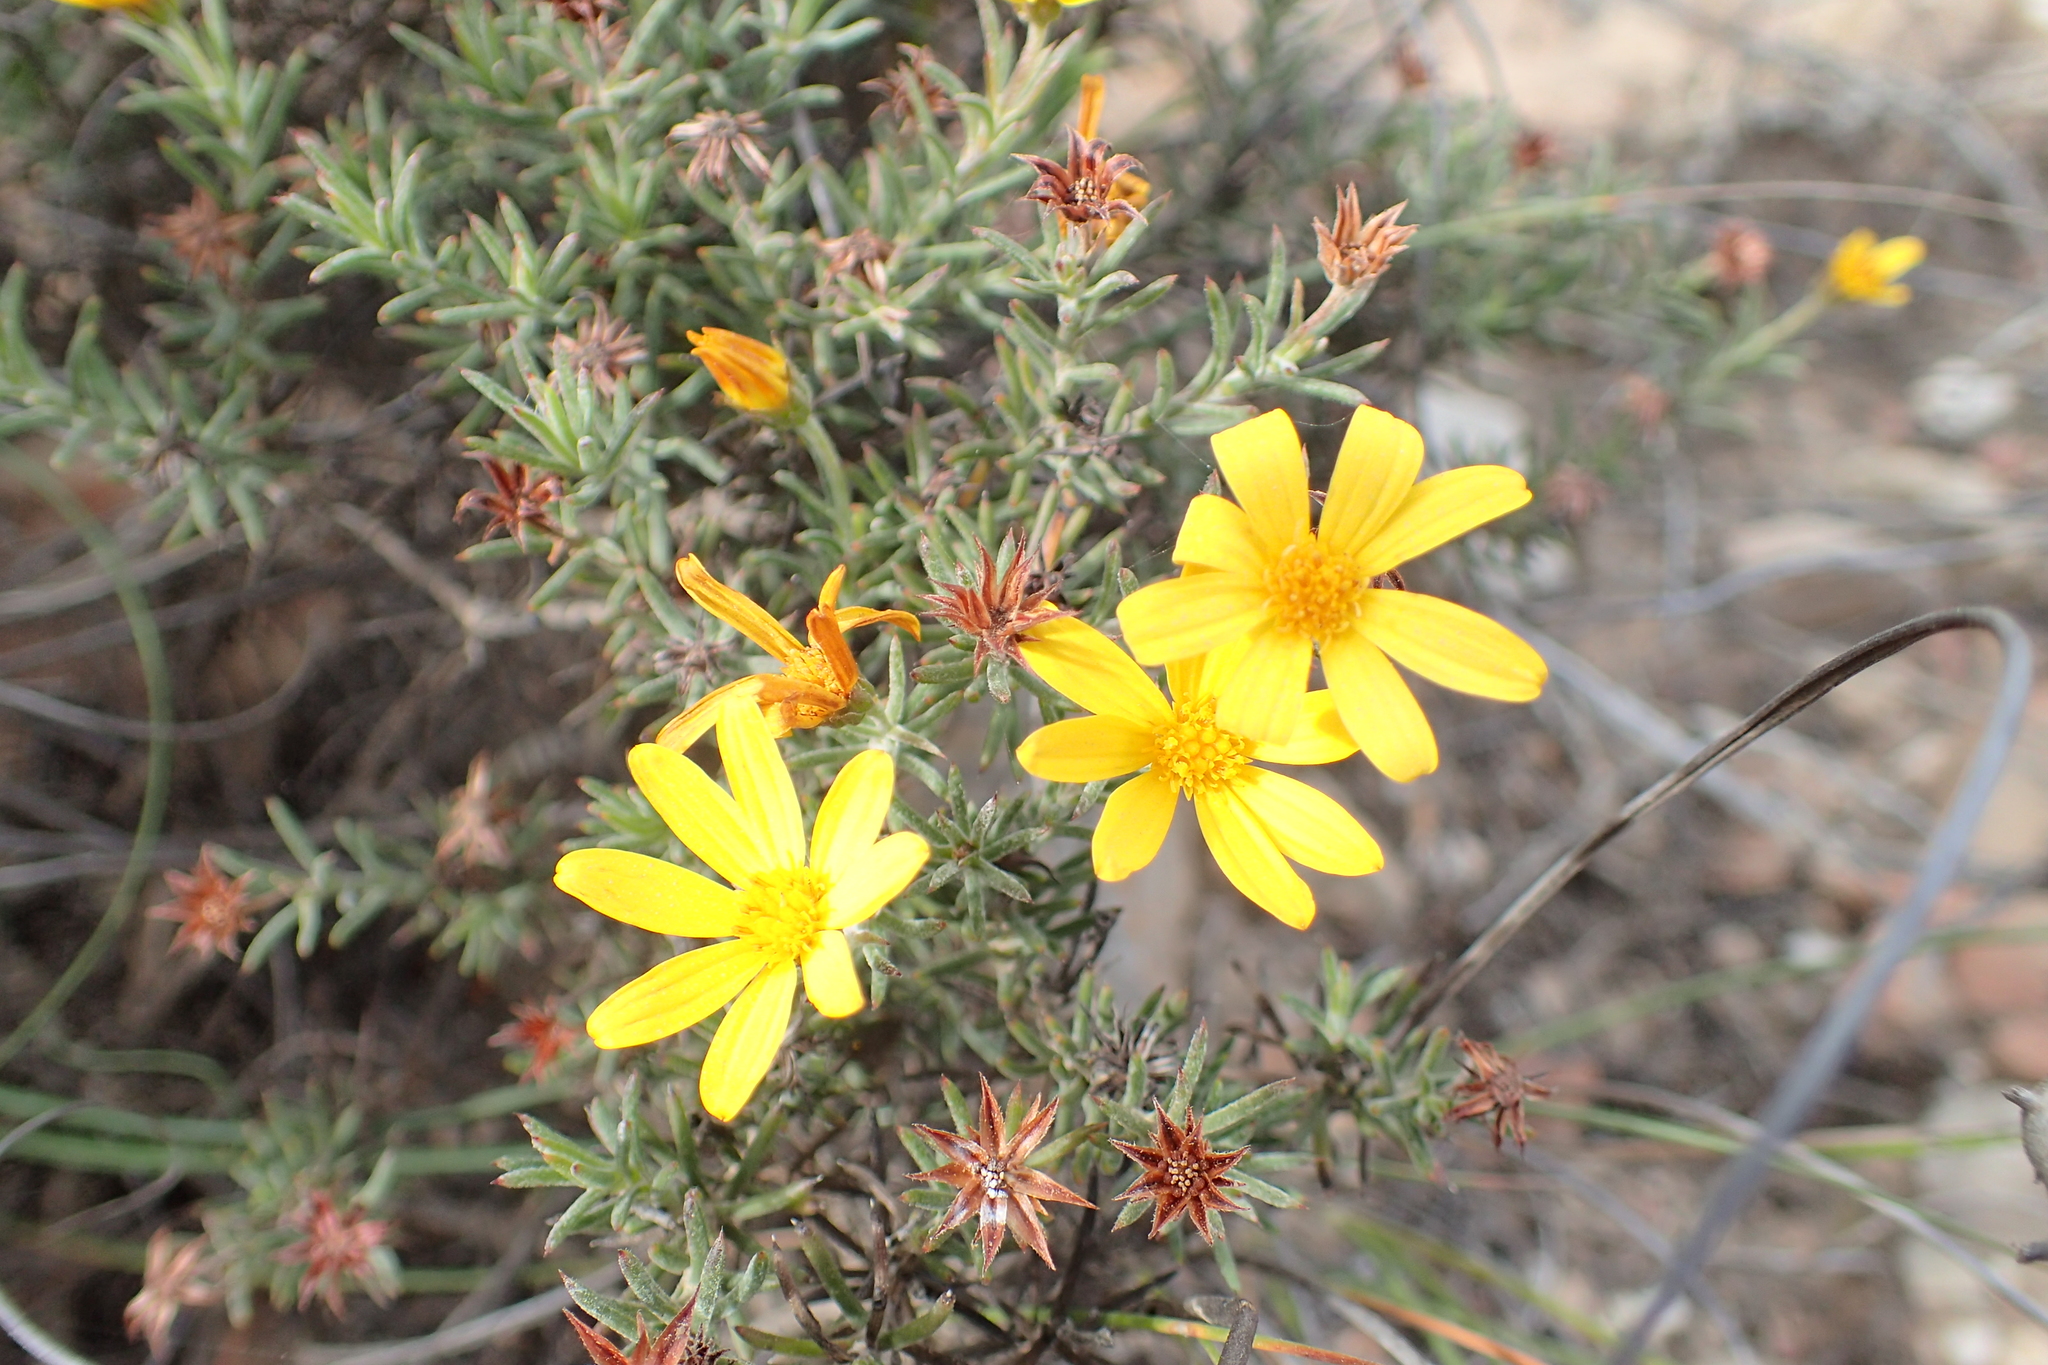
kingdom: Plantae
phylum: Tracheophyta
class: Magnoliopsida
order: Asterales
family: Asteraceae
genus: Gibbaria
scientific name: Gibbaria scabra
